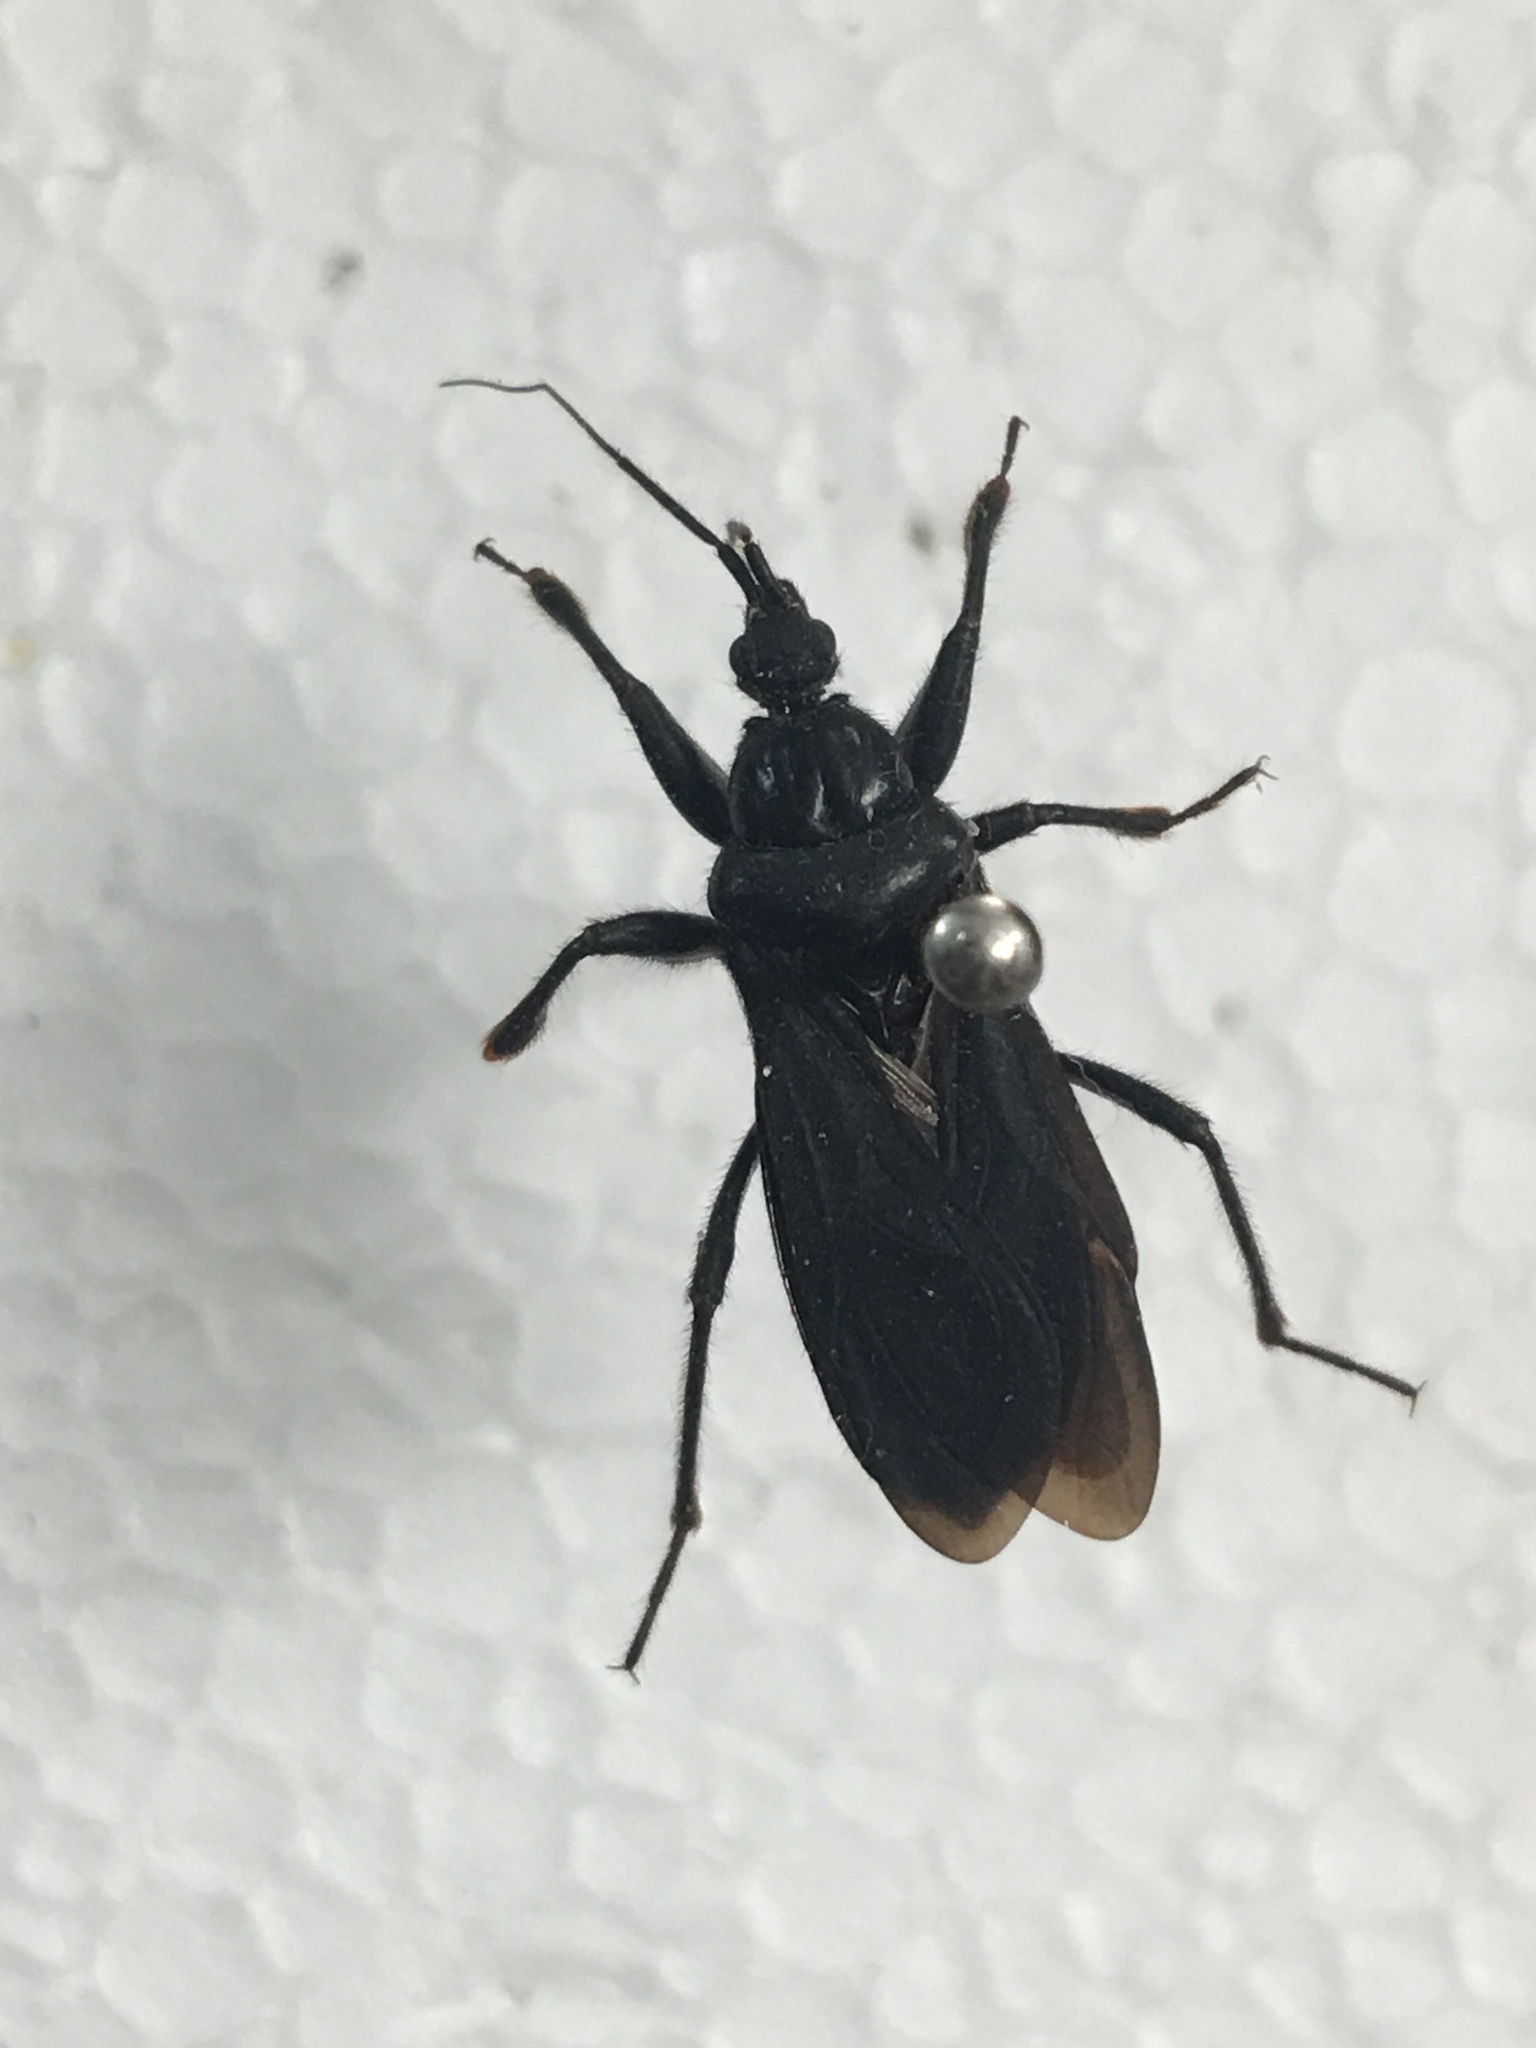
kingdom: Animalia
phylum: Arthropoda
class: Insecta
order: Hemiptera
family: Reduviidae
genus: Melanolestes
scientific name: Melanolestes picipes
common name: Assassin bug
